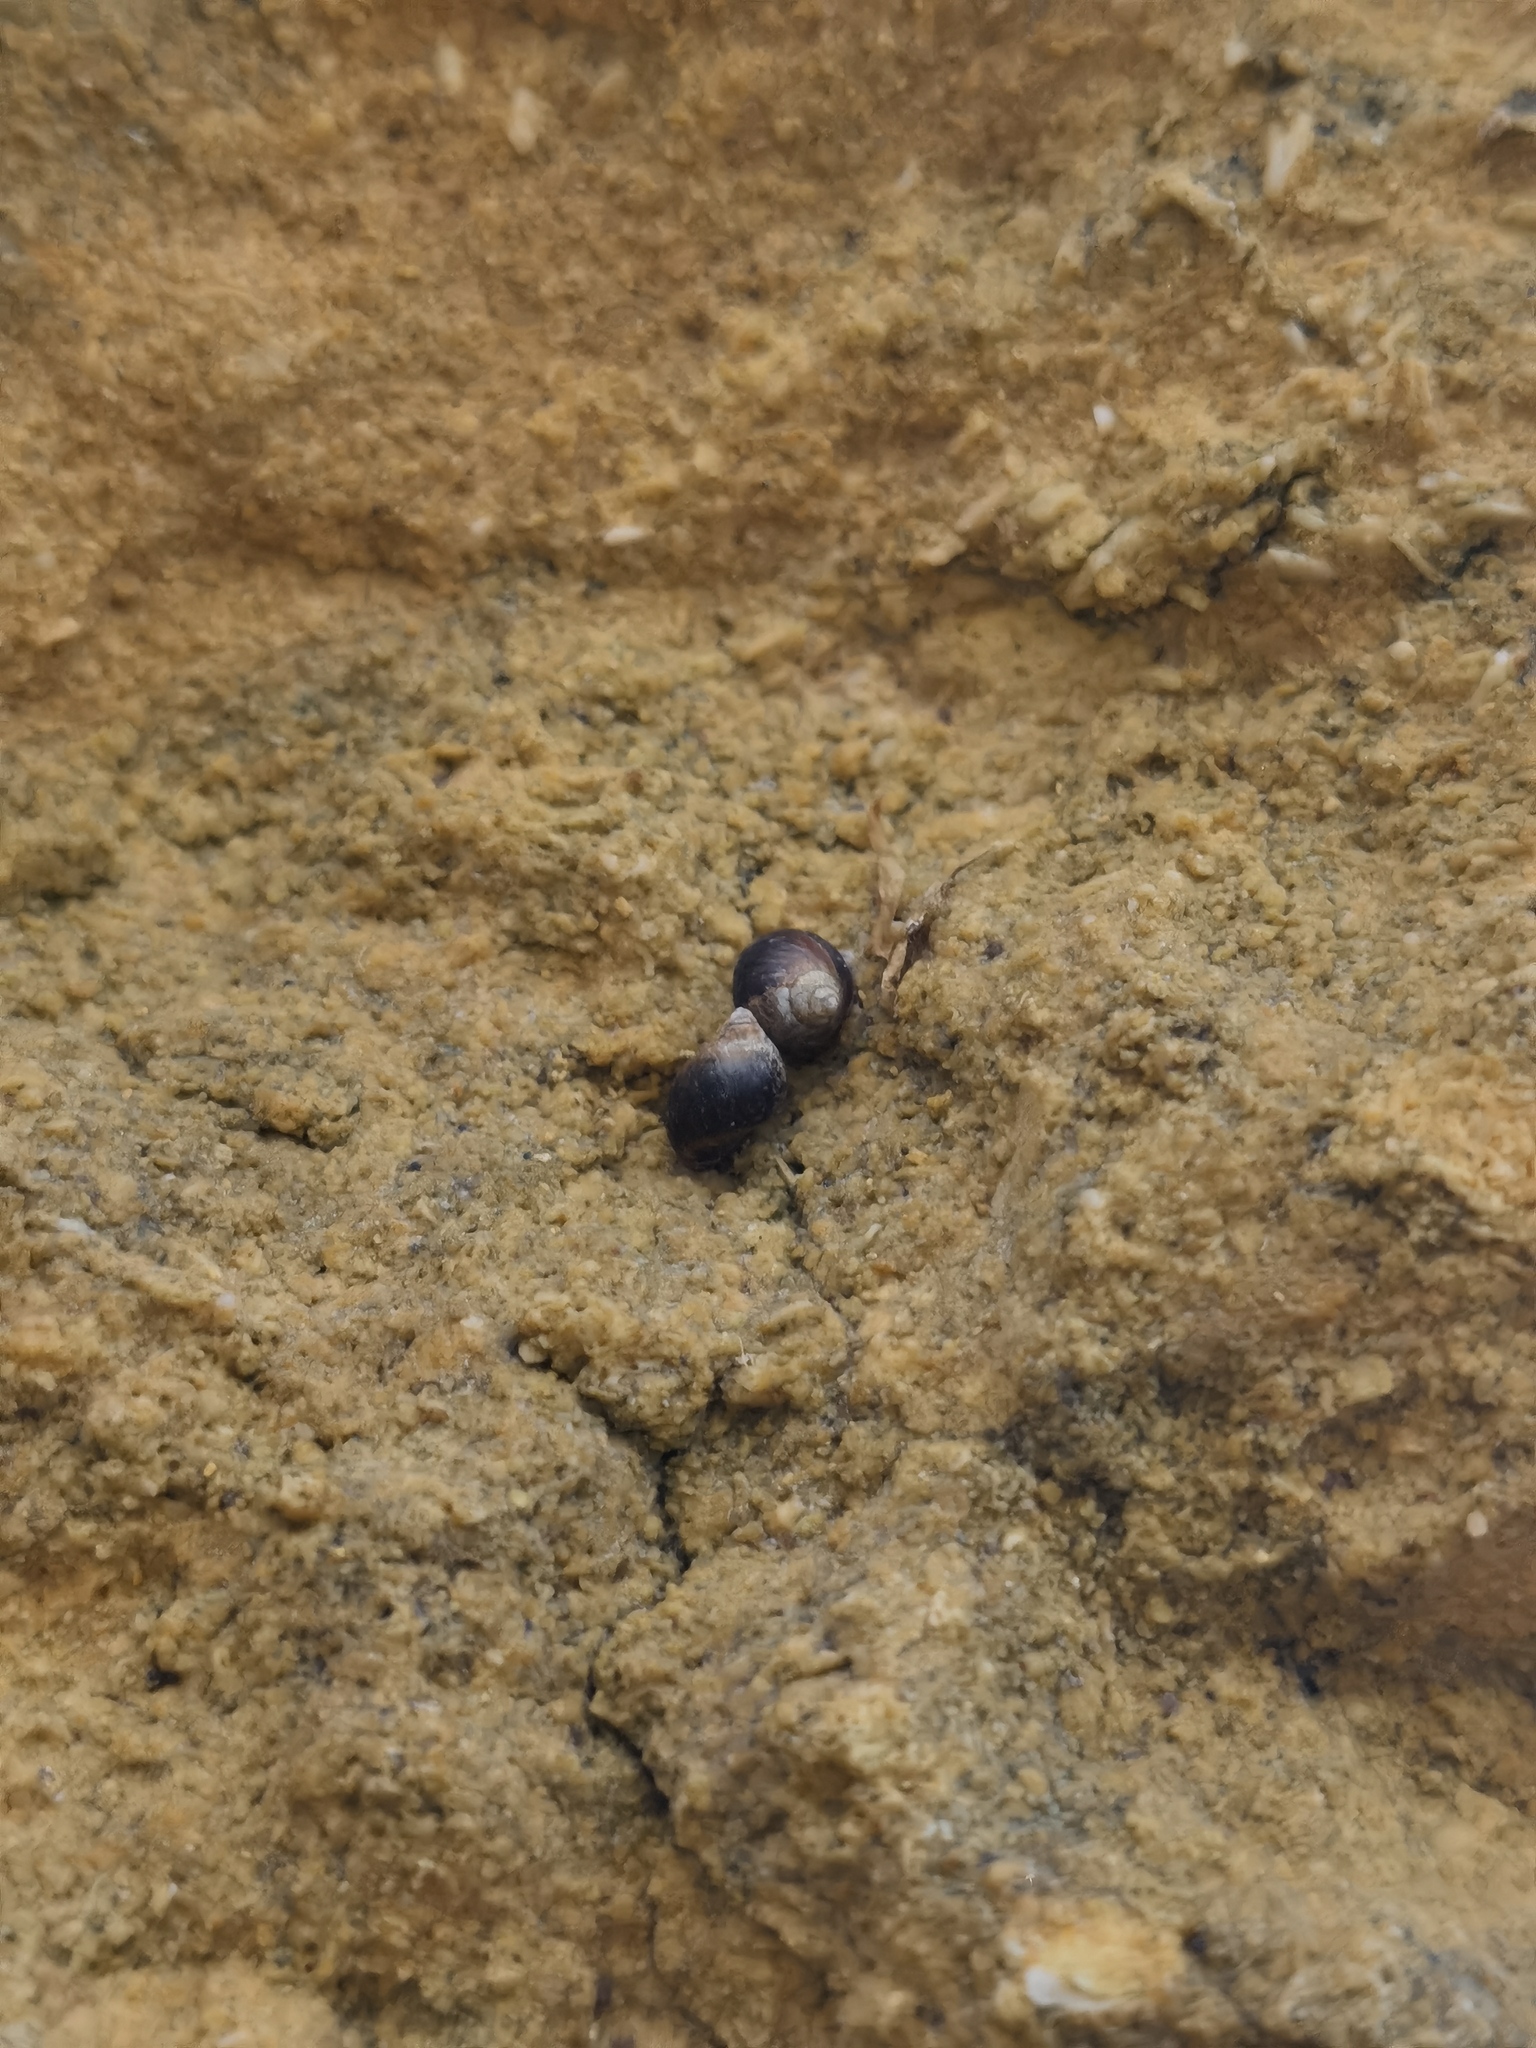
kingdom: Animalia
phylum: Mollusca
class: Gastropoda
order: Littorinimorpha
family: Littorinidae
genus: Melarhaphe
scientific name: Melarhaphe neritoides
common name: Small periwinkle
